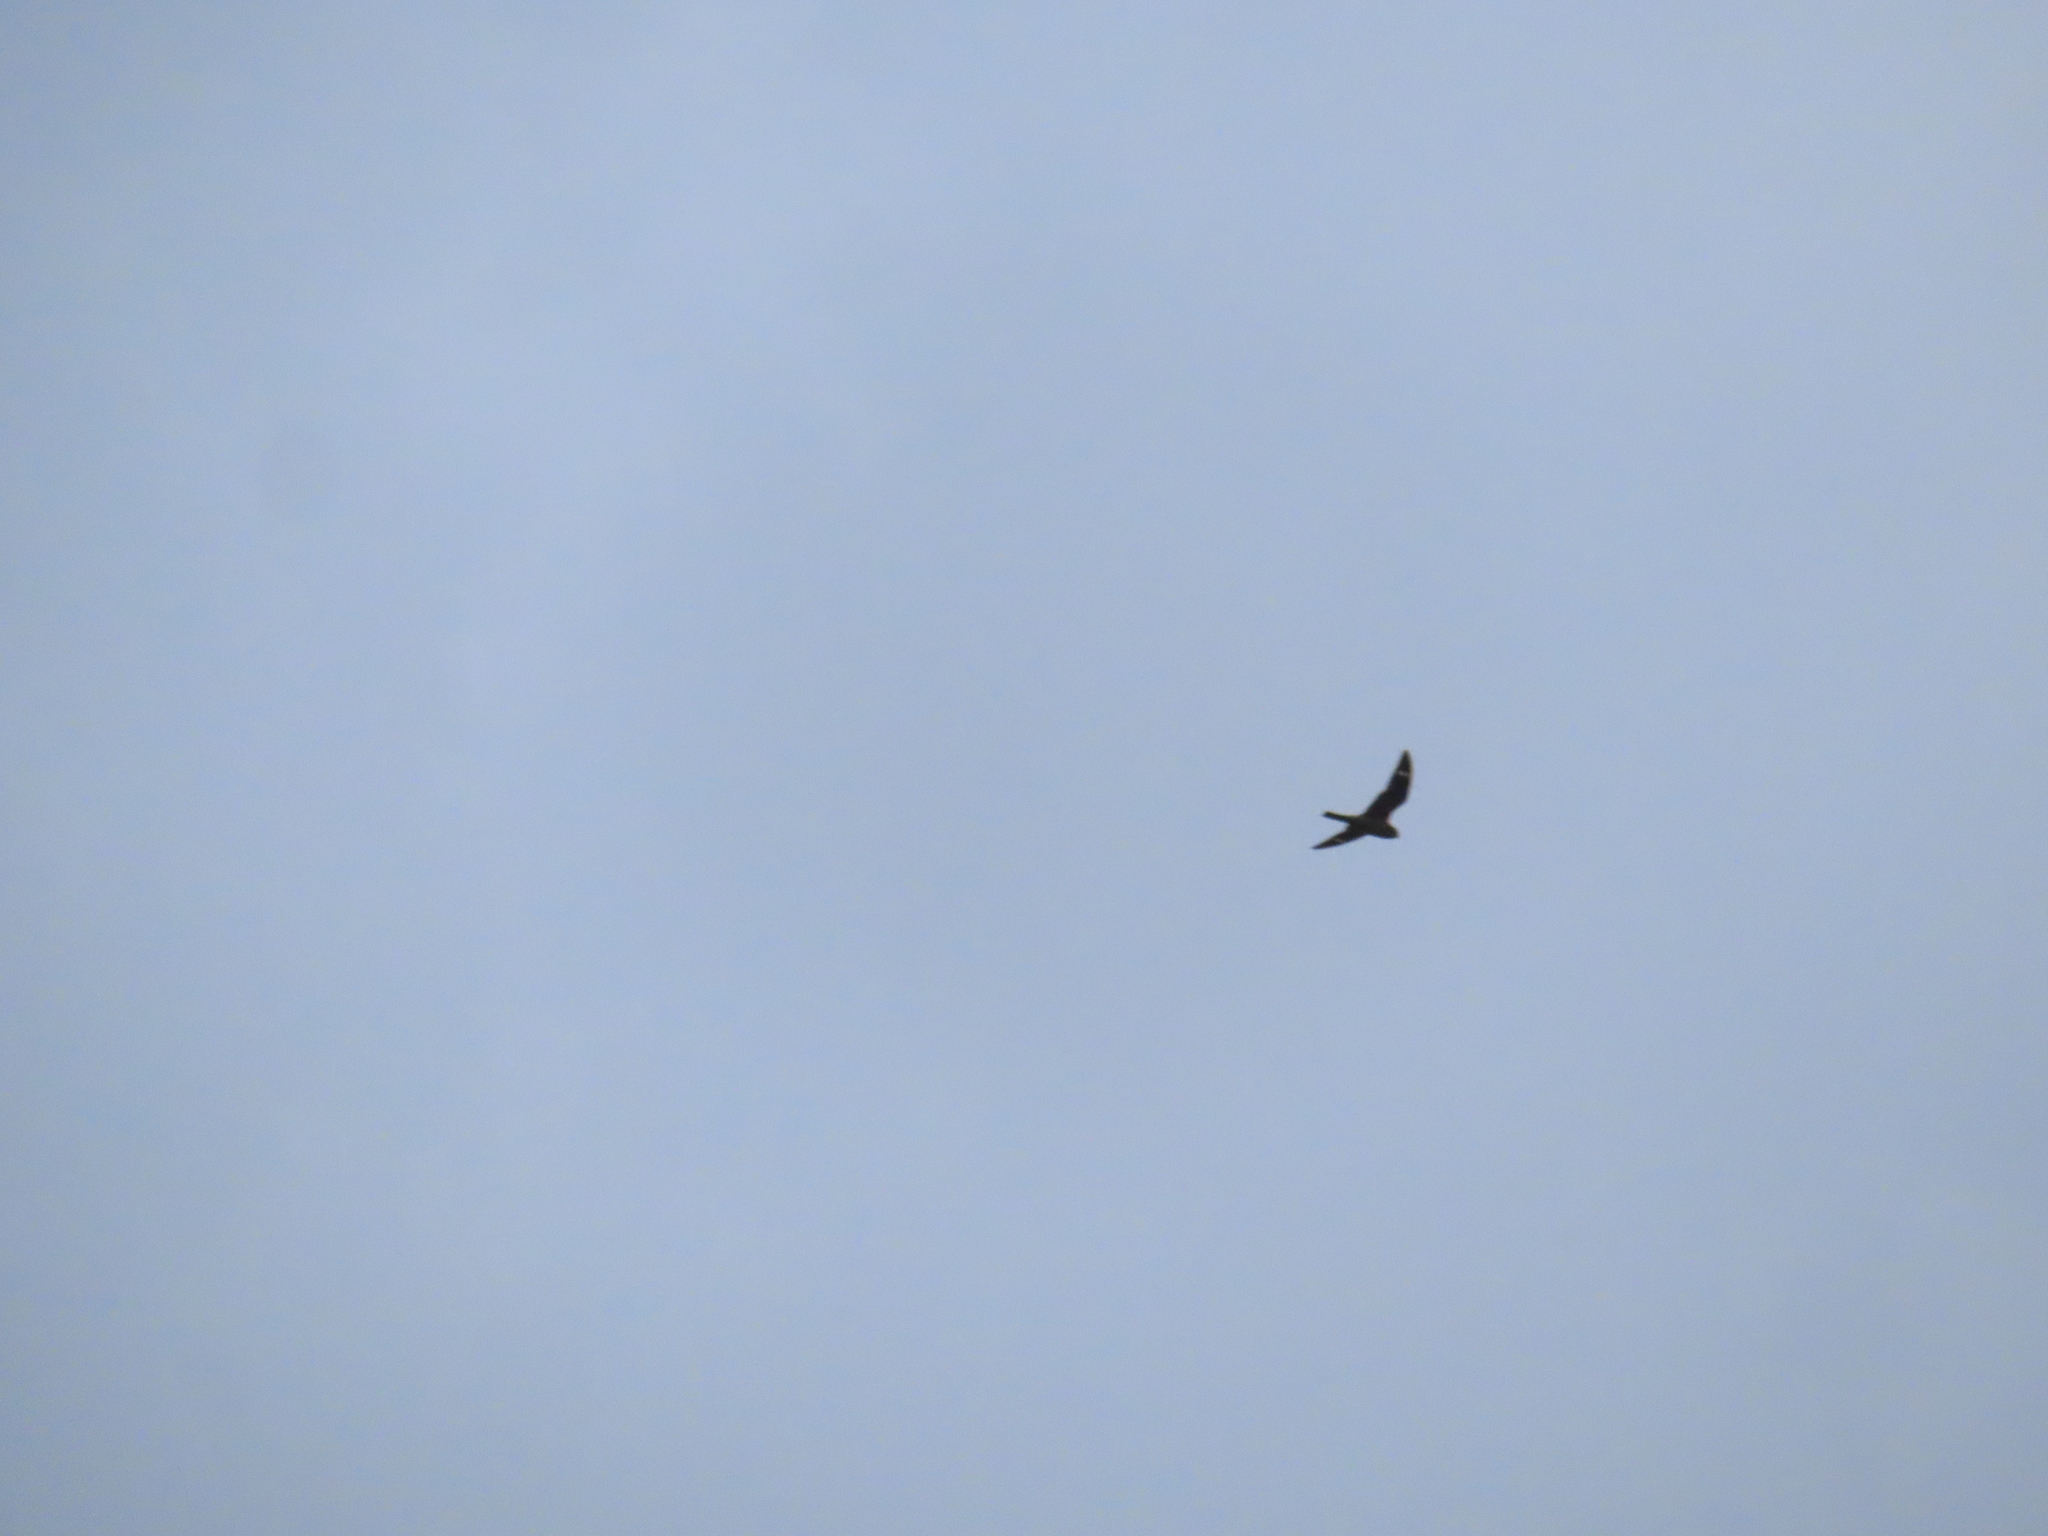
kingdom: Animalia
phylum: Chordata
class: Aves
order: Caprimulgiformes
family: Caprimulgidae
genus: Chordeiles
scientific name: Chordeiles minor
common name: Common nighthawk
